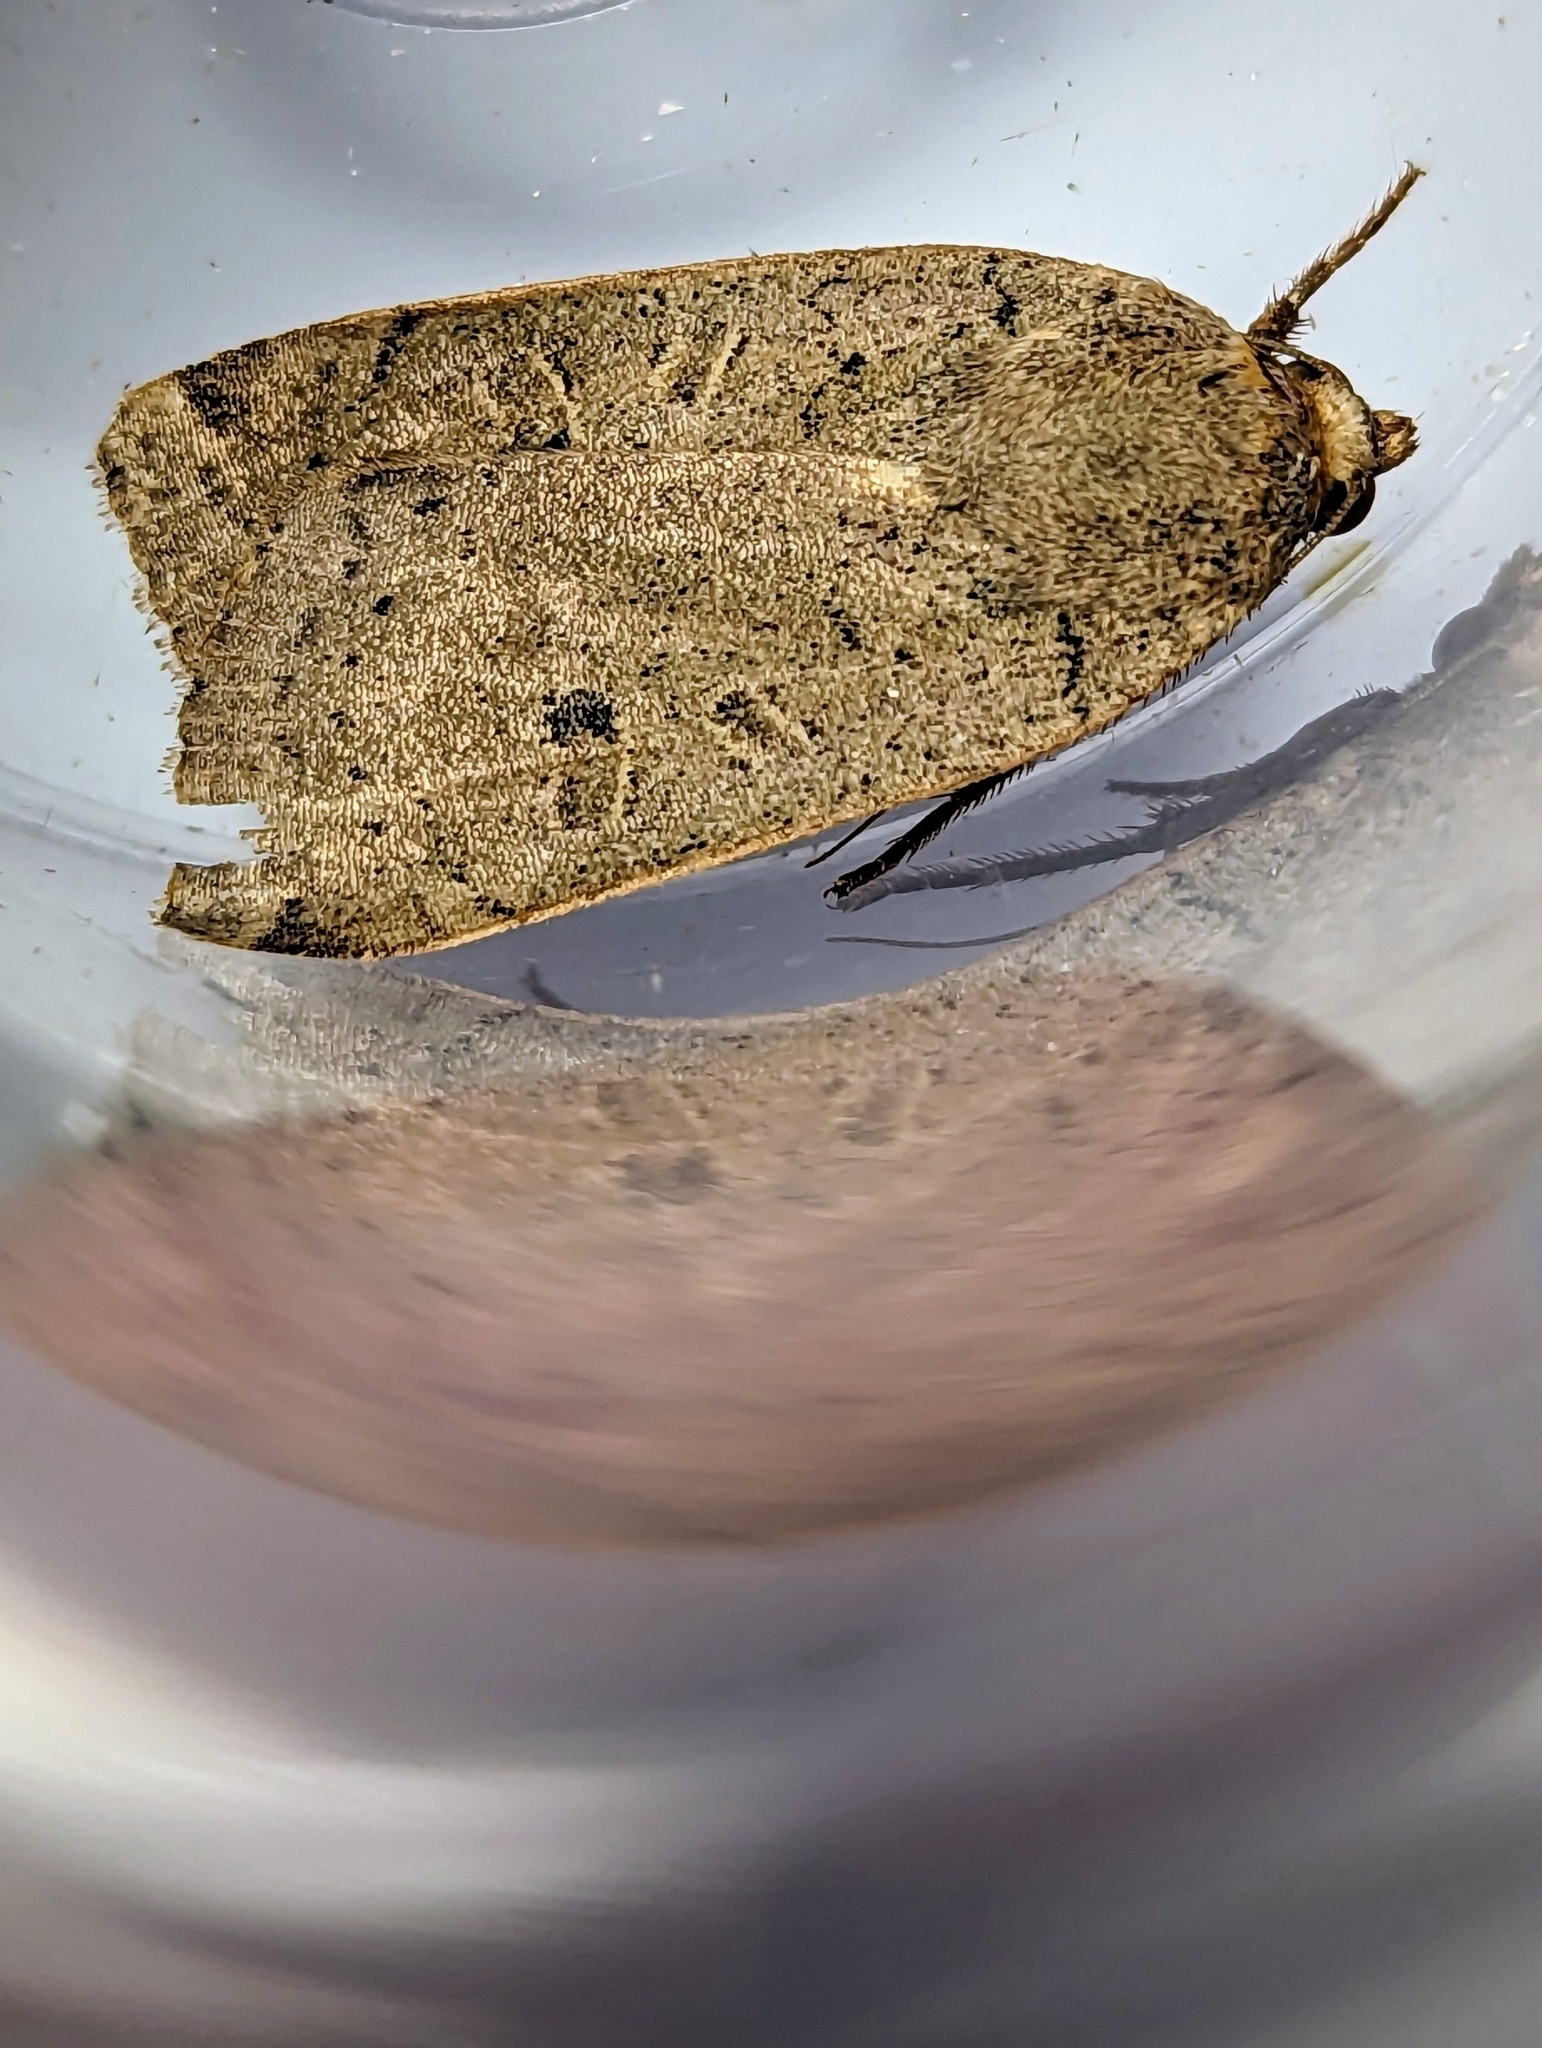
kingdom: Animalia
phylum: Arthropoda
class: Insecta
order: Lepidoptera
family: Noctuidae
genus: Noctua
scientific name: Noctua comes
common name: Lesser yellow underwing
